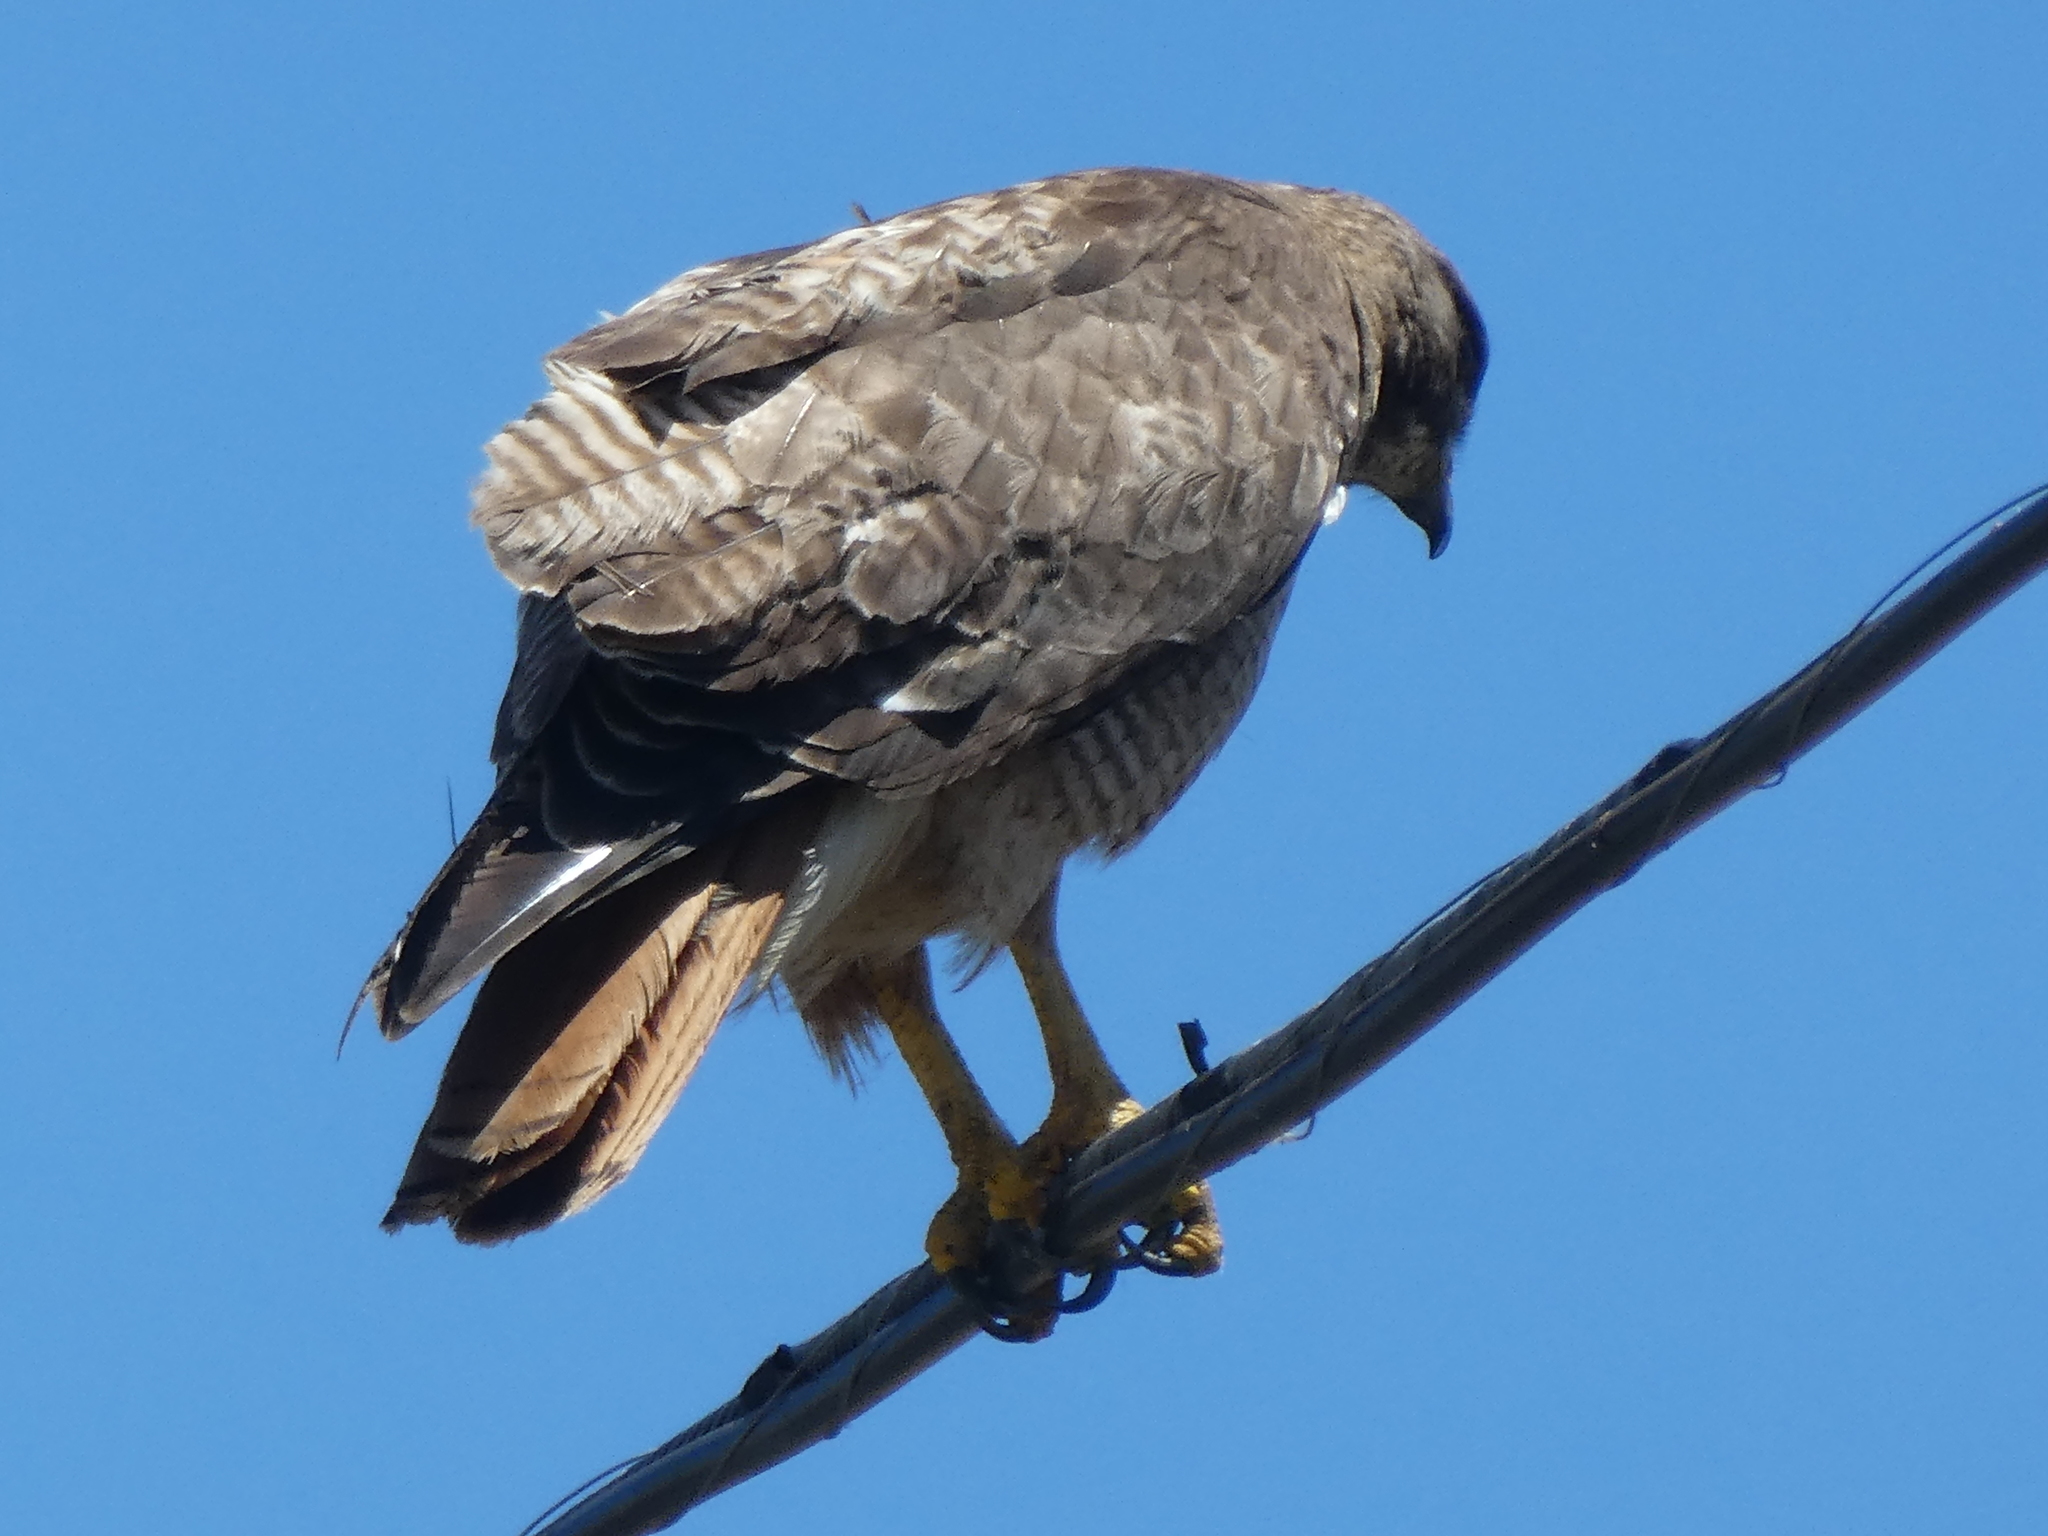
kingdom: Animalia
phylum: Chordata
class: Aves
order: Accipitriformes
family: Accipitridae
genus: Buteo
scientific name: Buteo jamaicensis
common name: Red-tailed hawk
